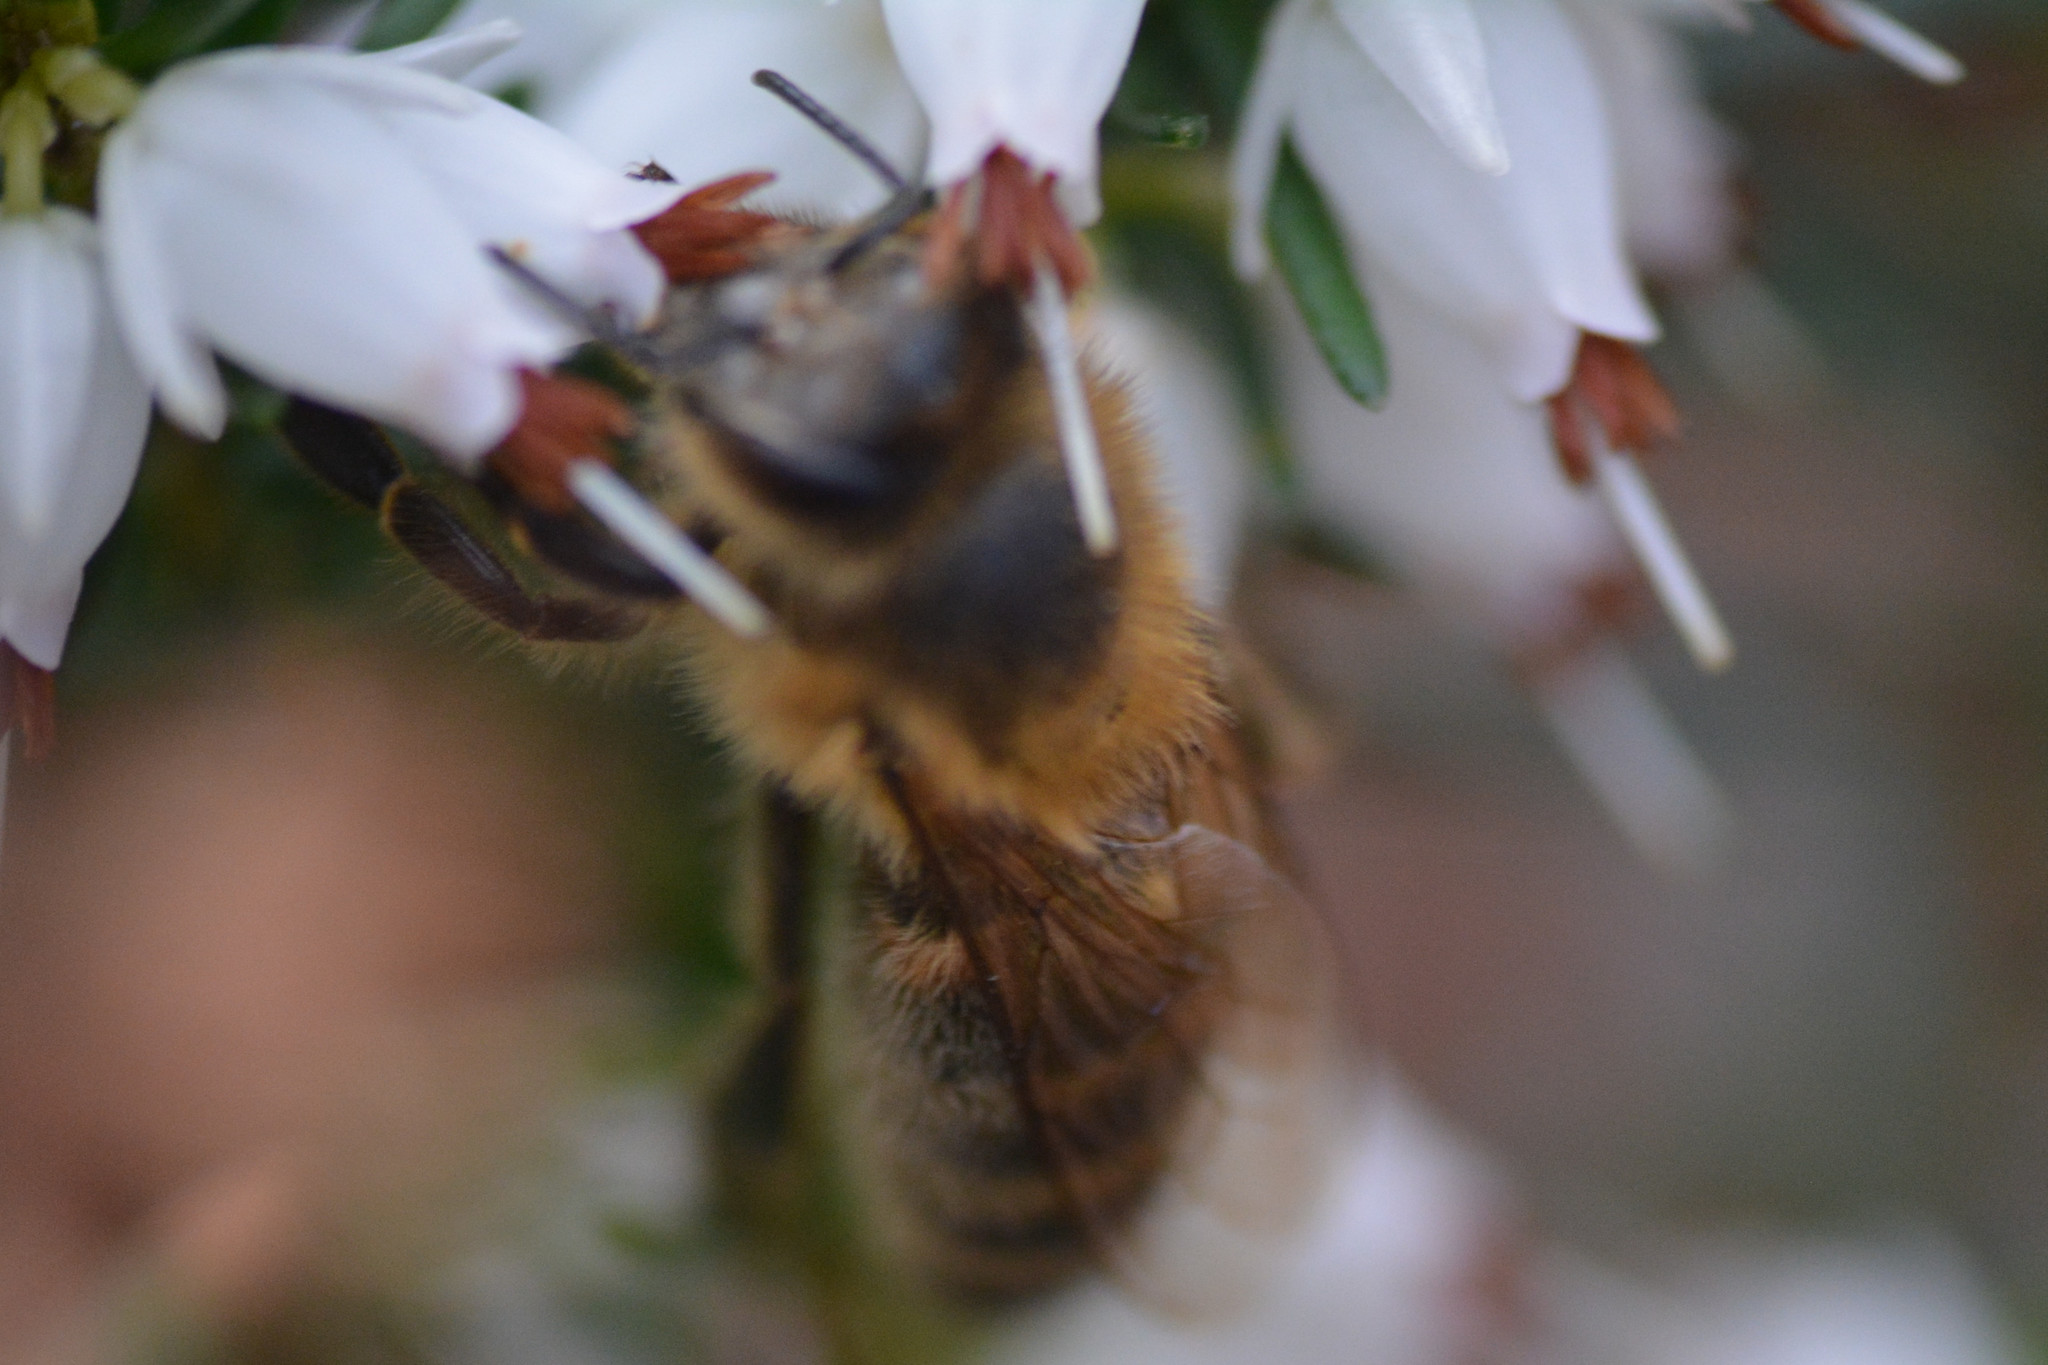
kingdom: Animalia
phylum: Arthropoda
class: Insecta
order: Hymenoptera
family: Apidae
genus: Apis
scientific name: Apis mellifera
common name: Honey bee
